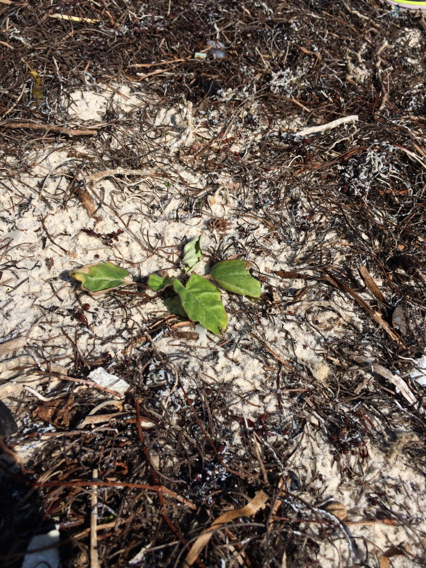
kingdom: Plantae
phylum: Tracheophyta
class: Magnoliopsida
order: Caryophyllales
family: Nyctaginaceae
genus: Okenia
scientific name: Okenia hypogaea
